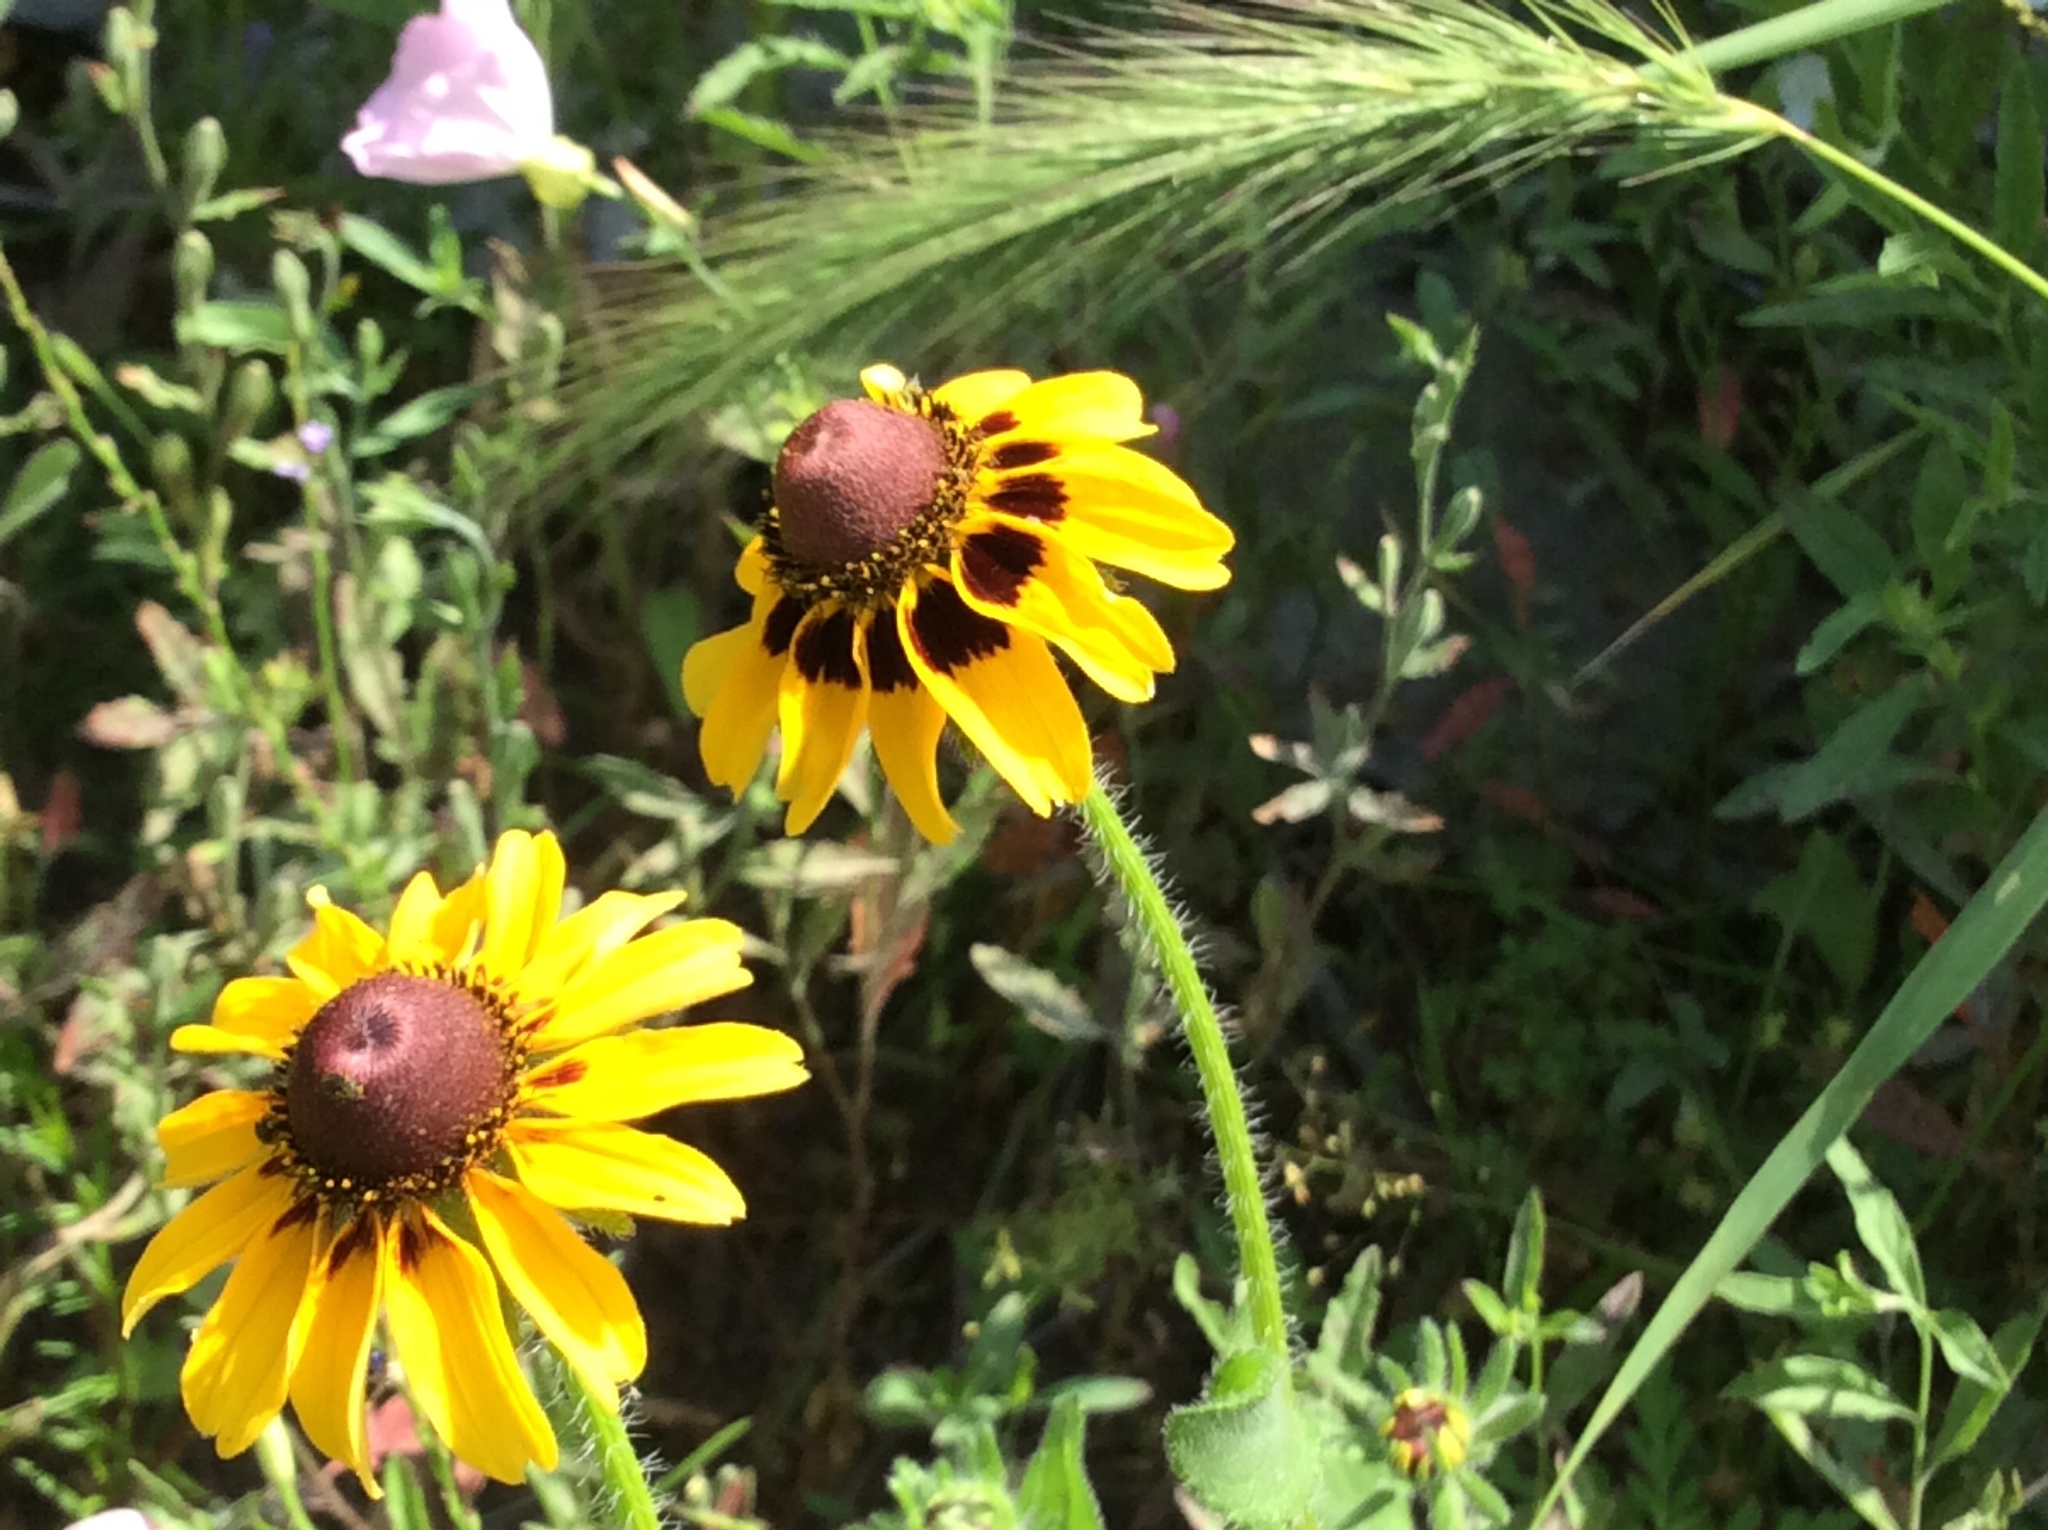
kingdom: Plantae
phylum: Tracheophyta
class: Magnoliopsida
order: Asterales
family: Asteraceae
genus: Rudbeckia
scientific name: Rudbeckia hirta
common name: Black-eyed-susan
